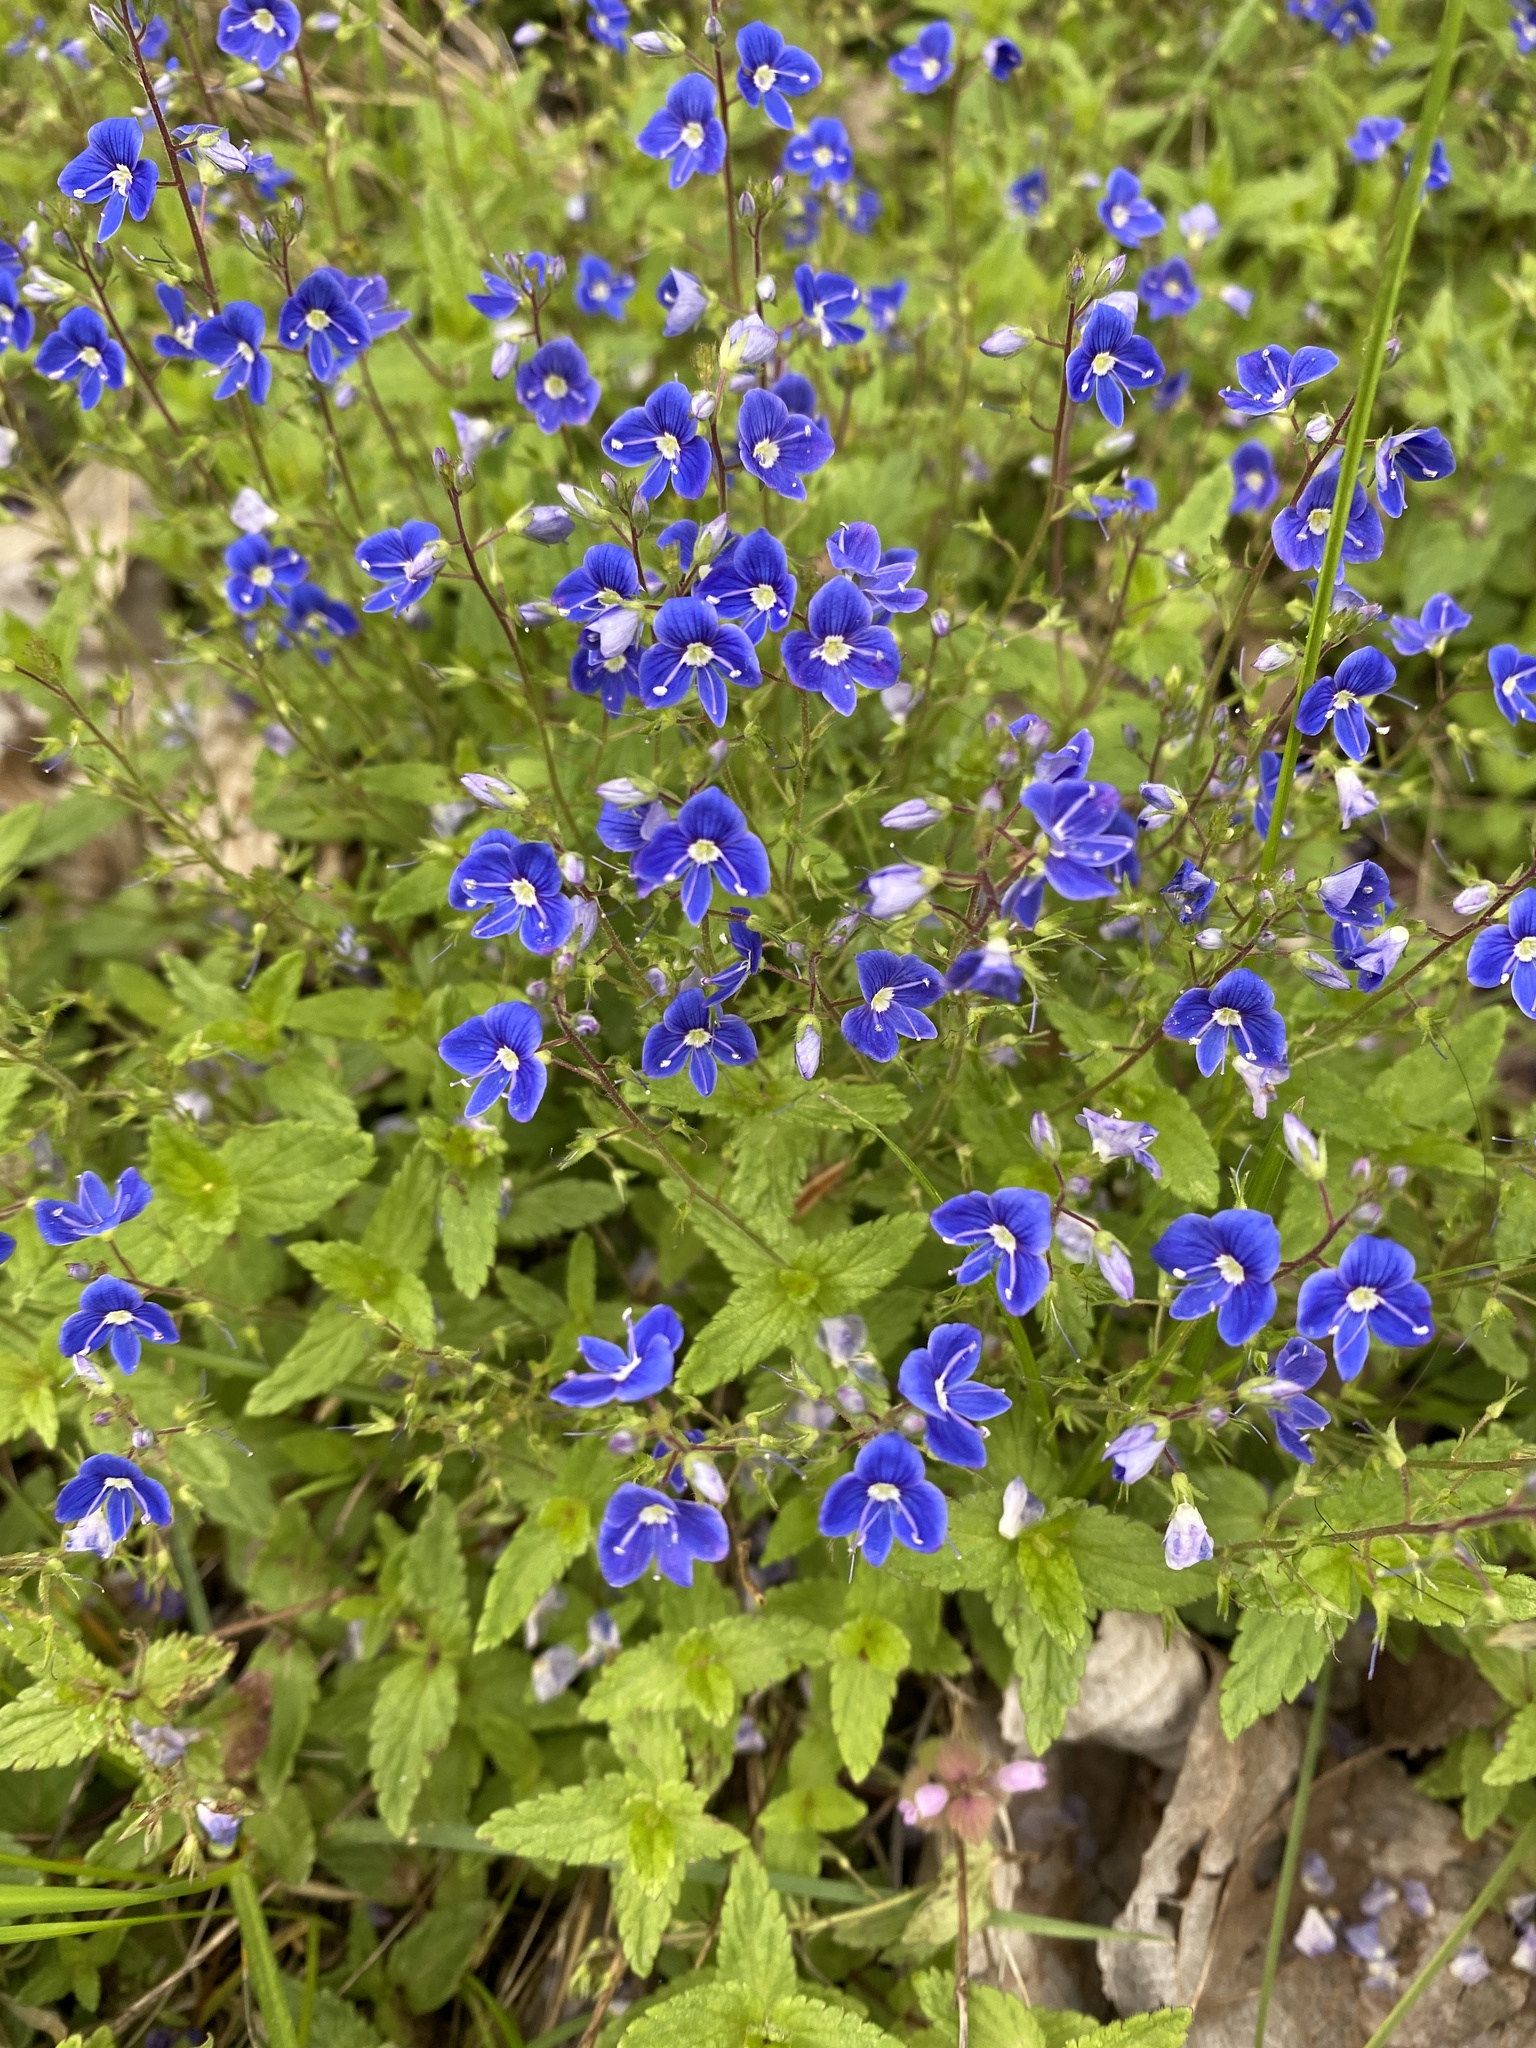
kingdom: Plantae
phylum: Tracheophyta
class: Magnoliopsida
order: Lamiales
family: Plantaginaceae
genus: Veronica
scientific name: Veronica chamaedrys
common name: Germander speedwell
